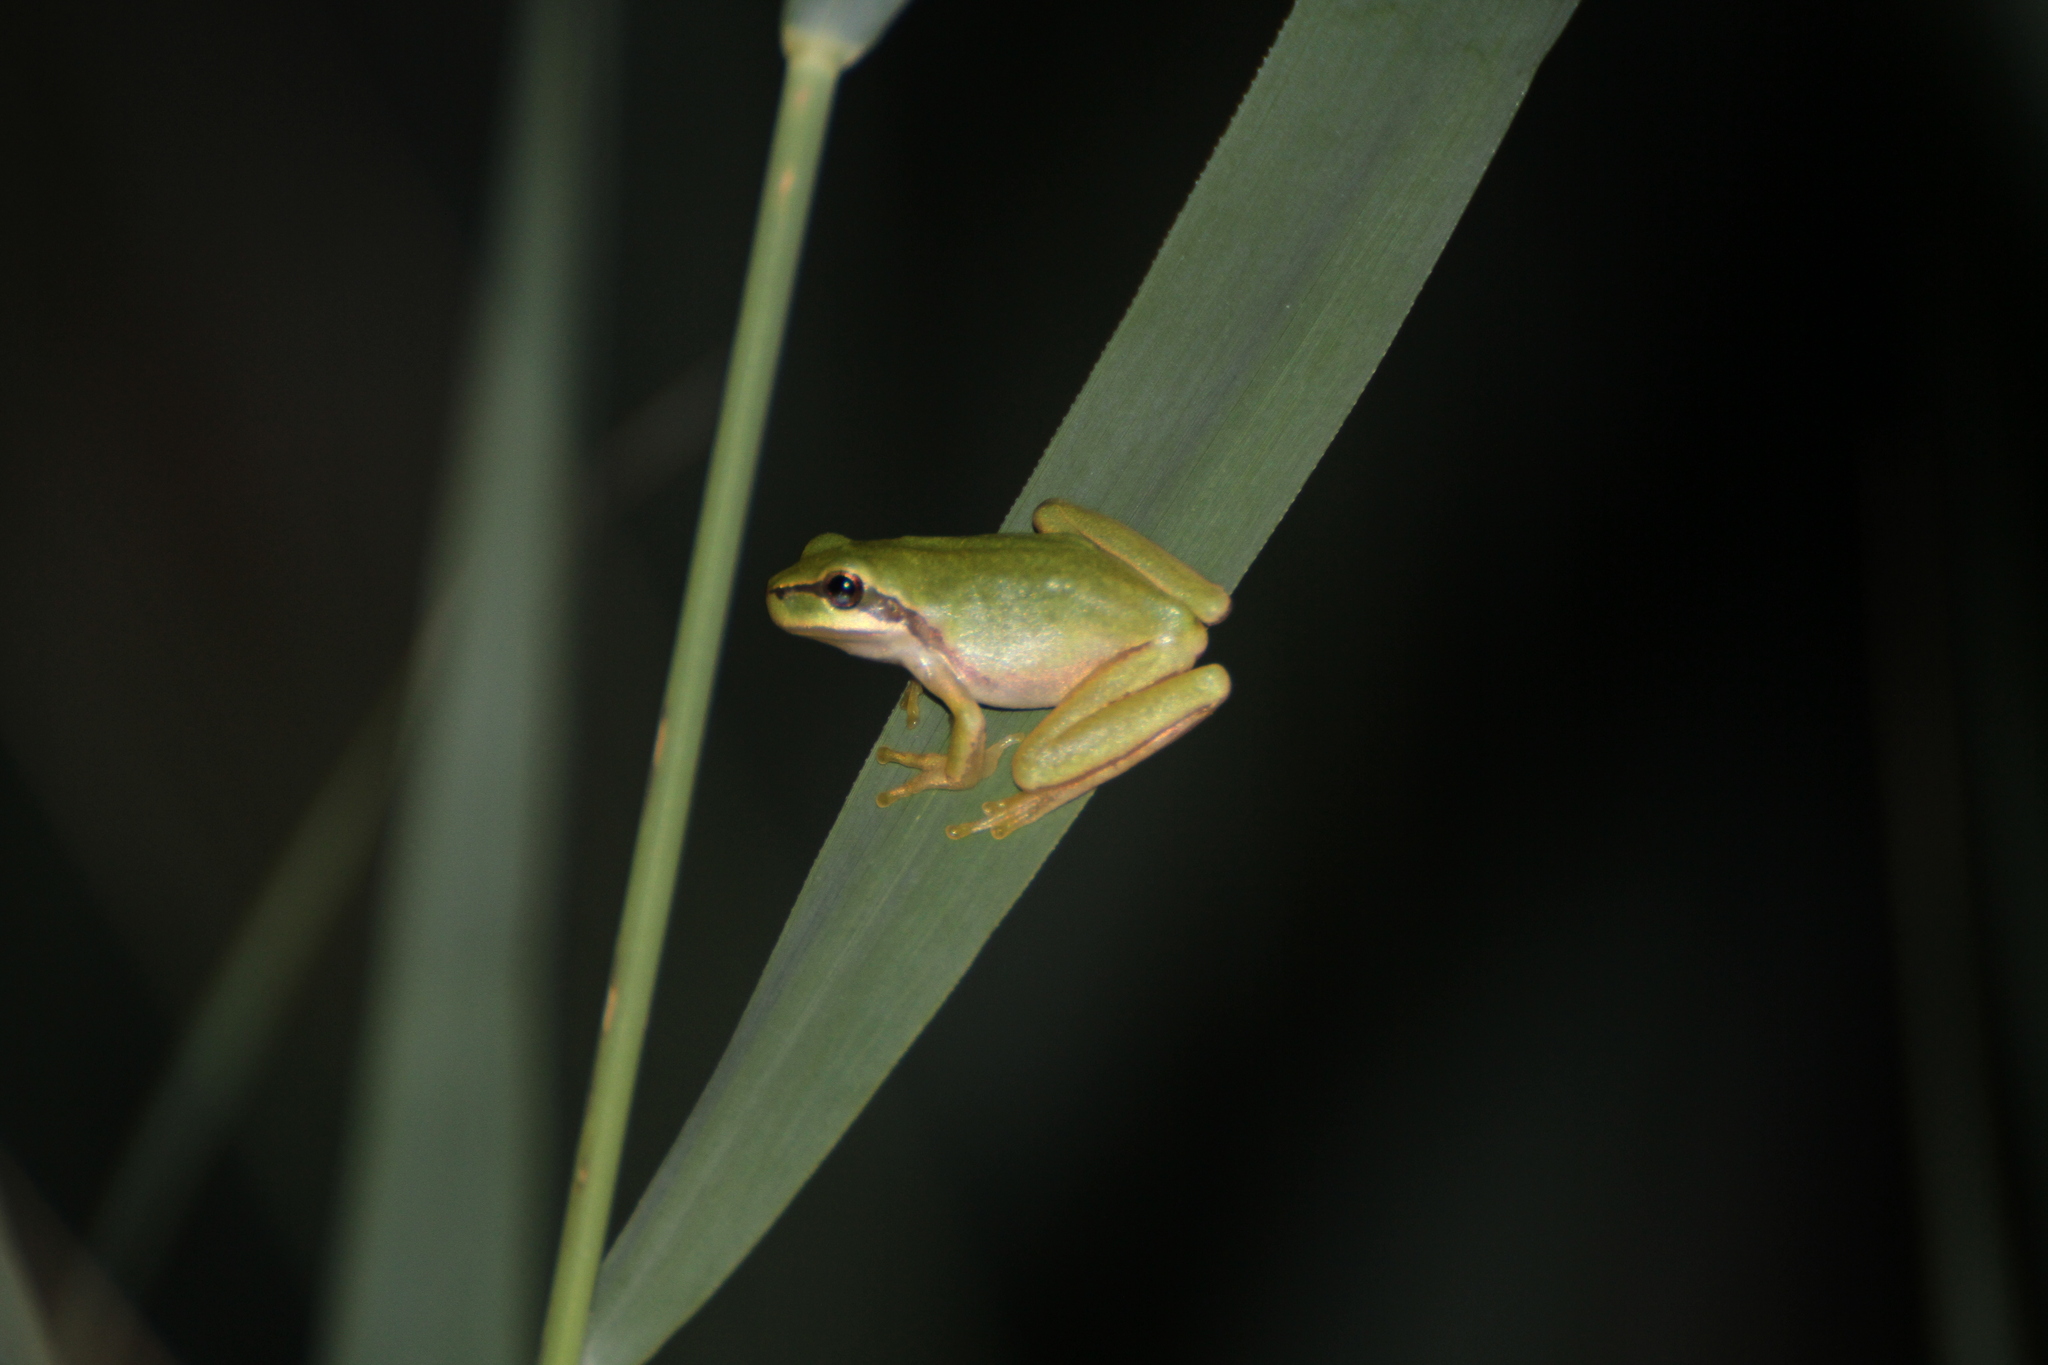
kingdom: Animalia
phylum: Chordata
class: Amphibia
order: Anura
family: Hylidae
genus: Hyla
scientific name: Hyla meridionalis
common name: Stripeless tree frog
